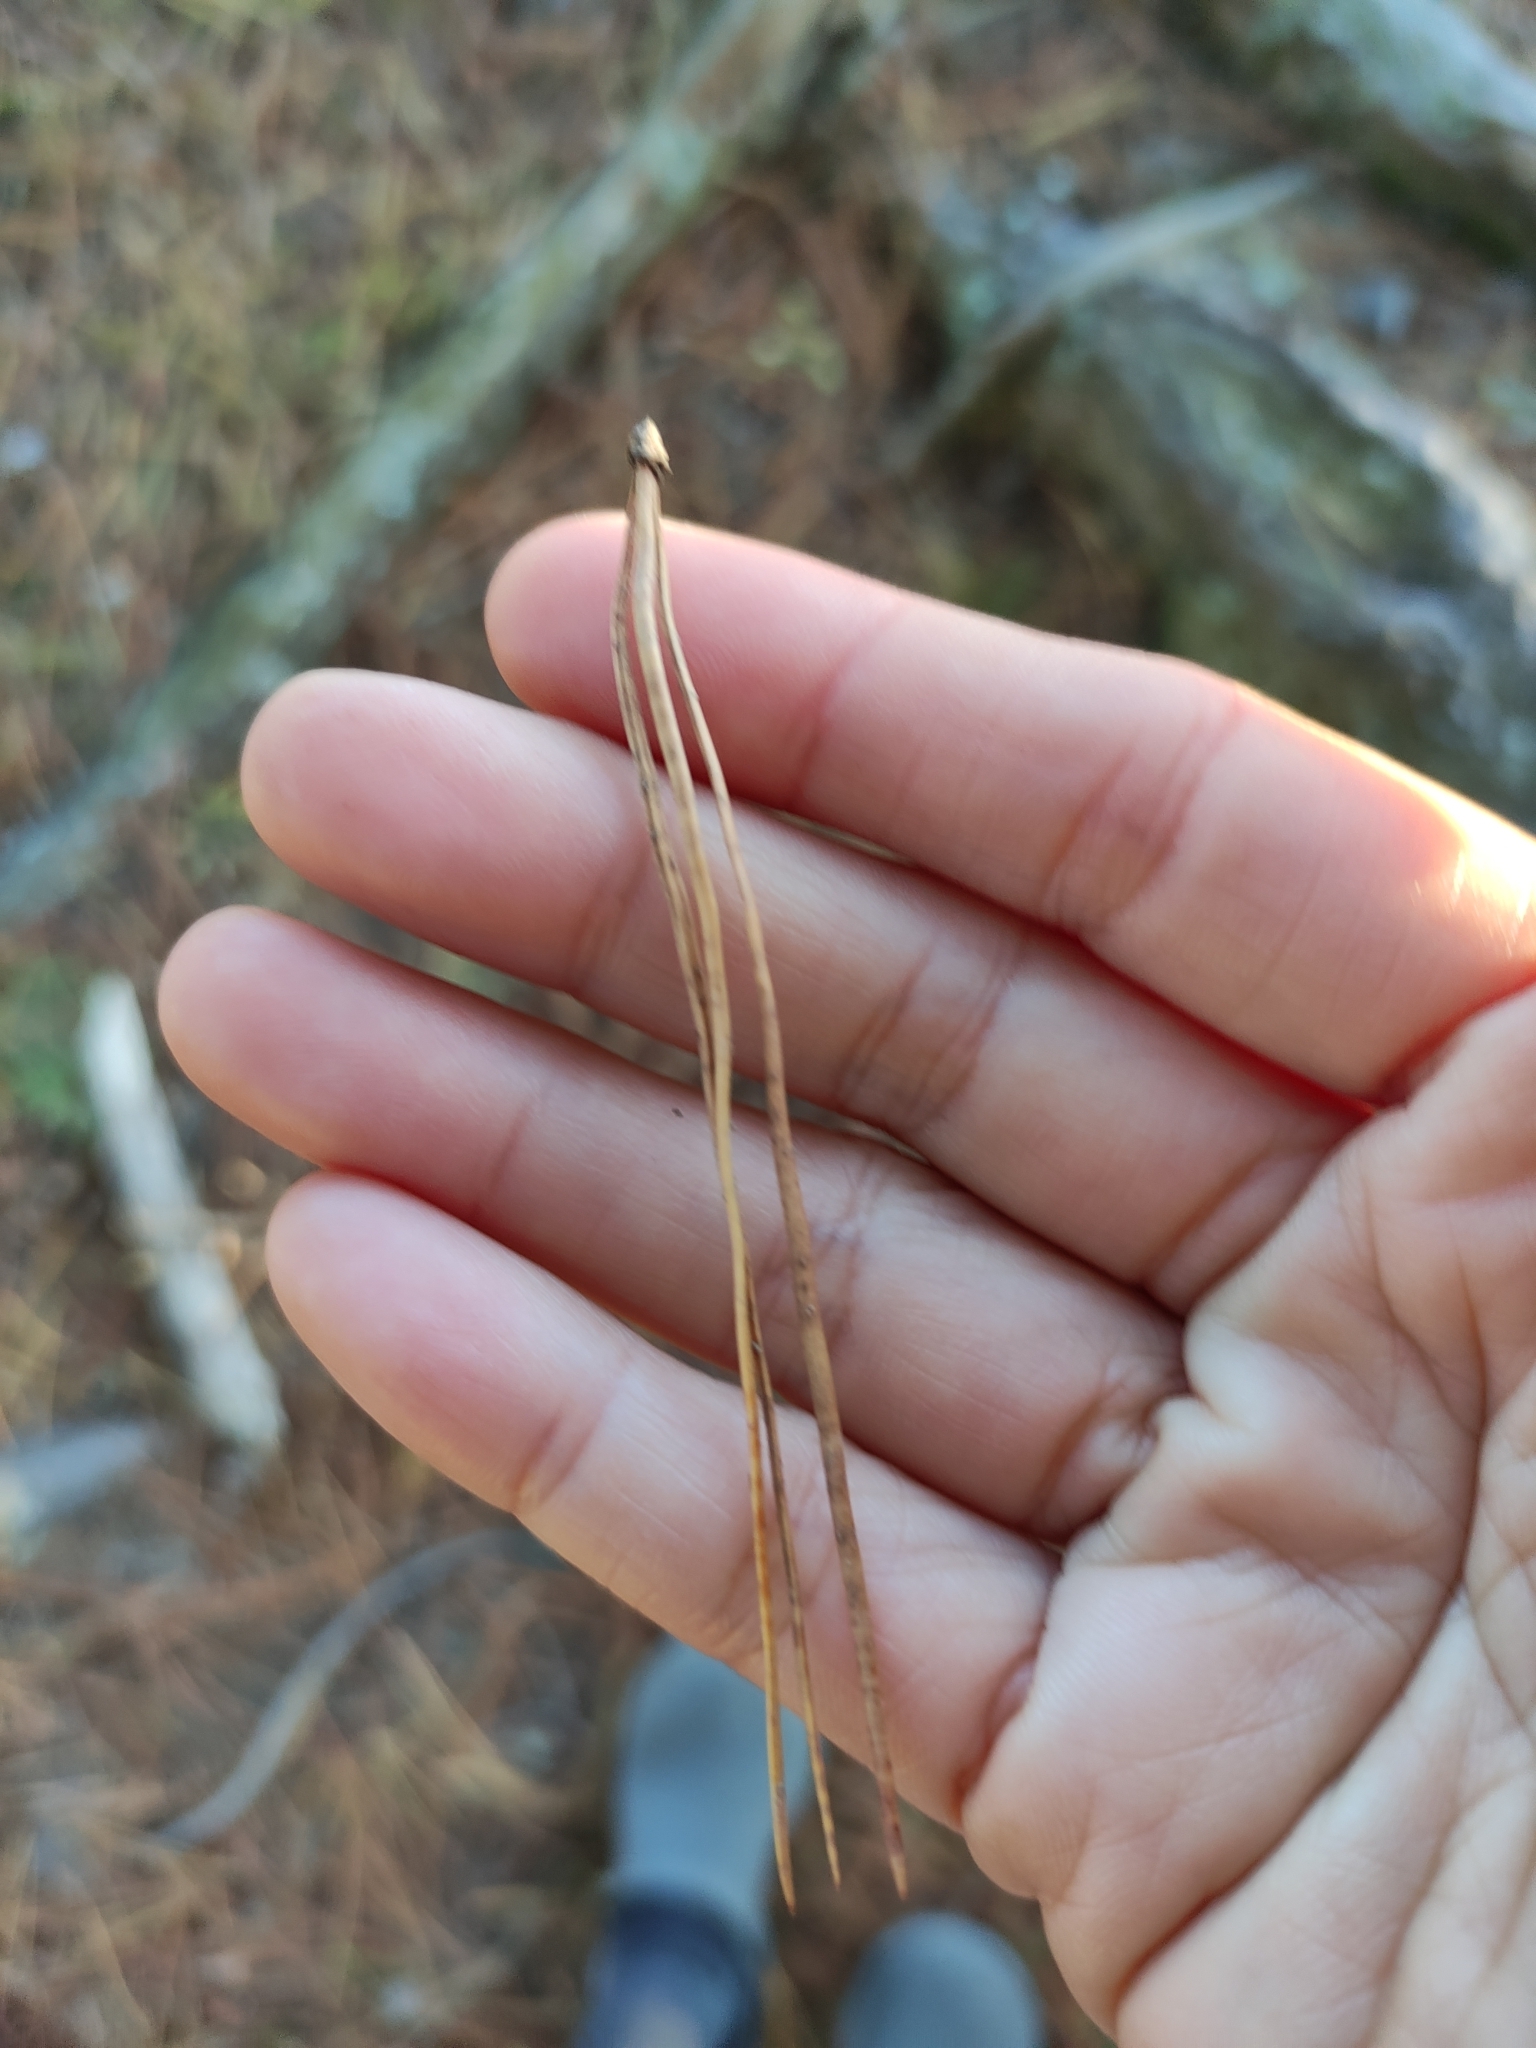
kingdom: Plantae
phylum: Tracheophyta
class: Pinopsida
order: Pinales
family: Pinaceae
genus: Pinus
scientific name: Pinus radiata
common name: Monterey pine
